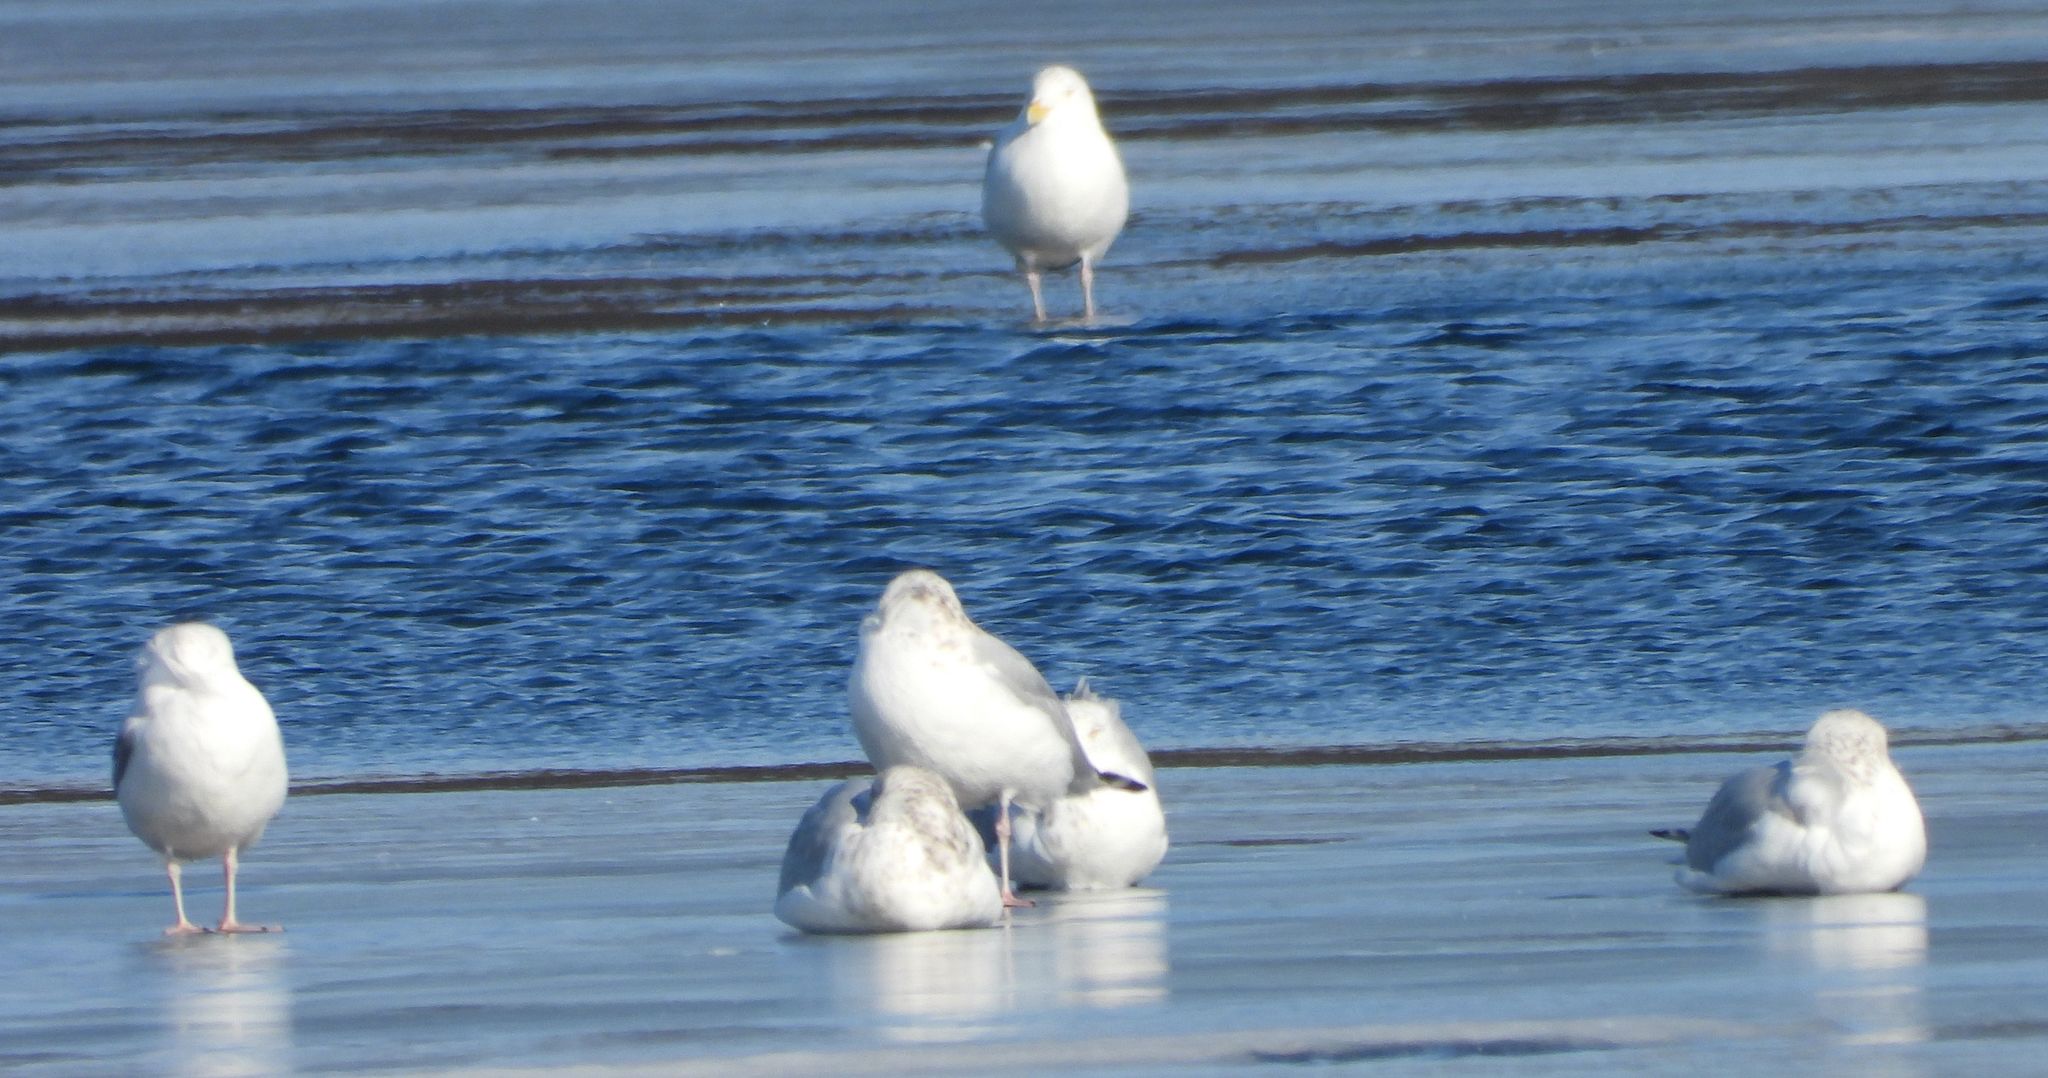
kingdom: Animalia
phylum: Chordata
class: Aves
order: Charadriiformes
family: Laridae
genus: Larus
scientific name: Larus argentatus
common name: Herring gull
